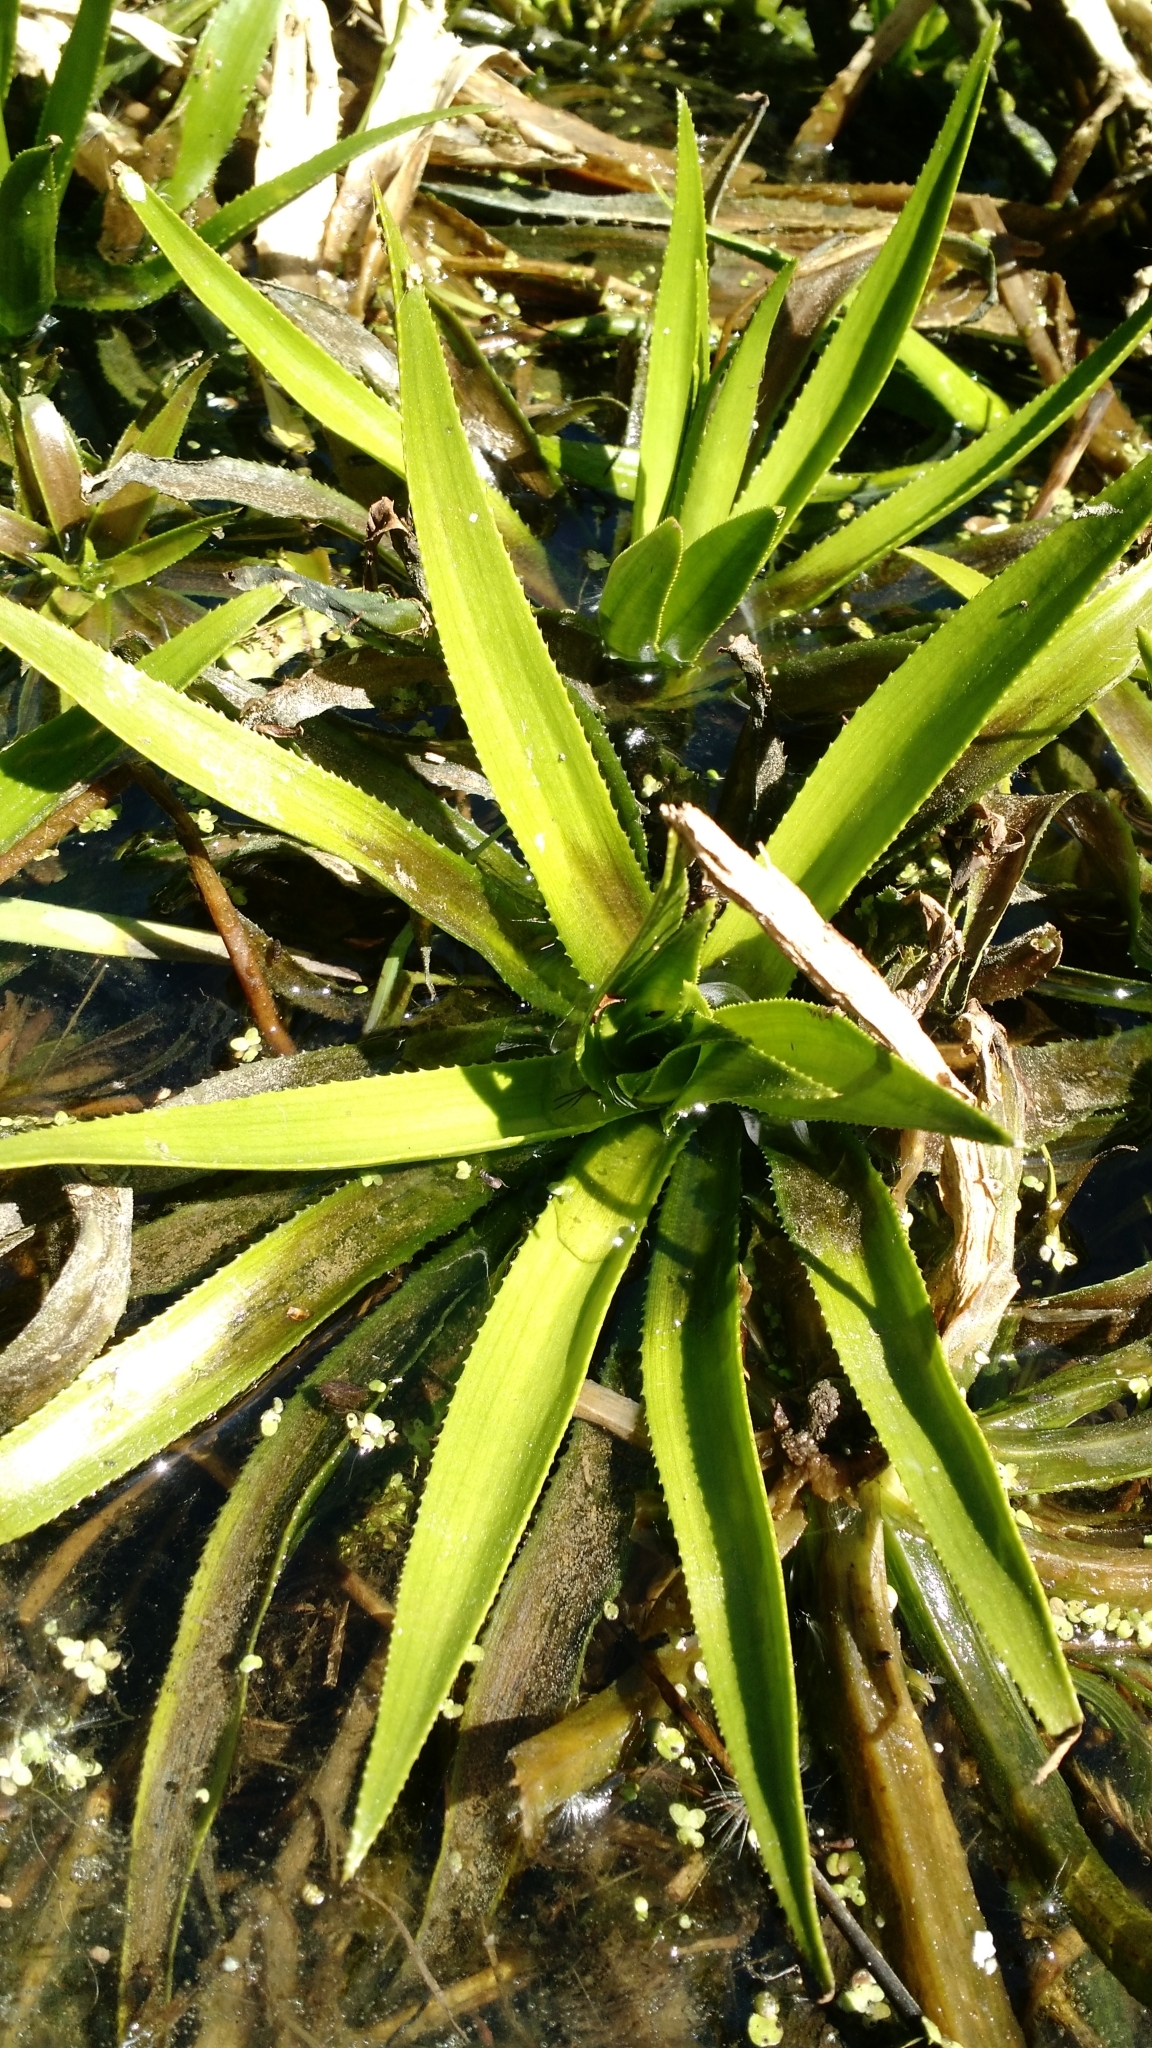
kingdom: Plantae
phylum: Tracheophyta
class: Liliopsida
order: Alismatales
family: Hydrocharitaceae
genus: Stratiotes
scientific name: Stratiotes aloides
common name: Water-soldier
